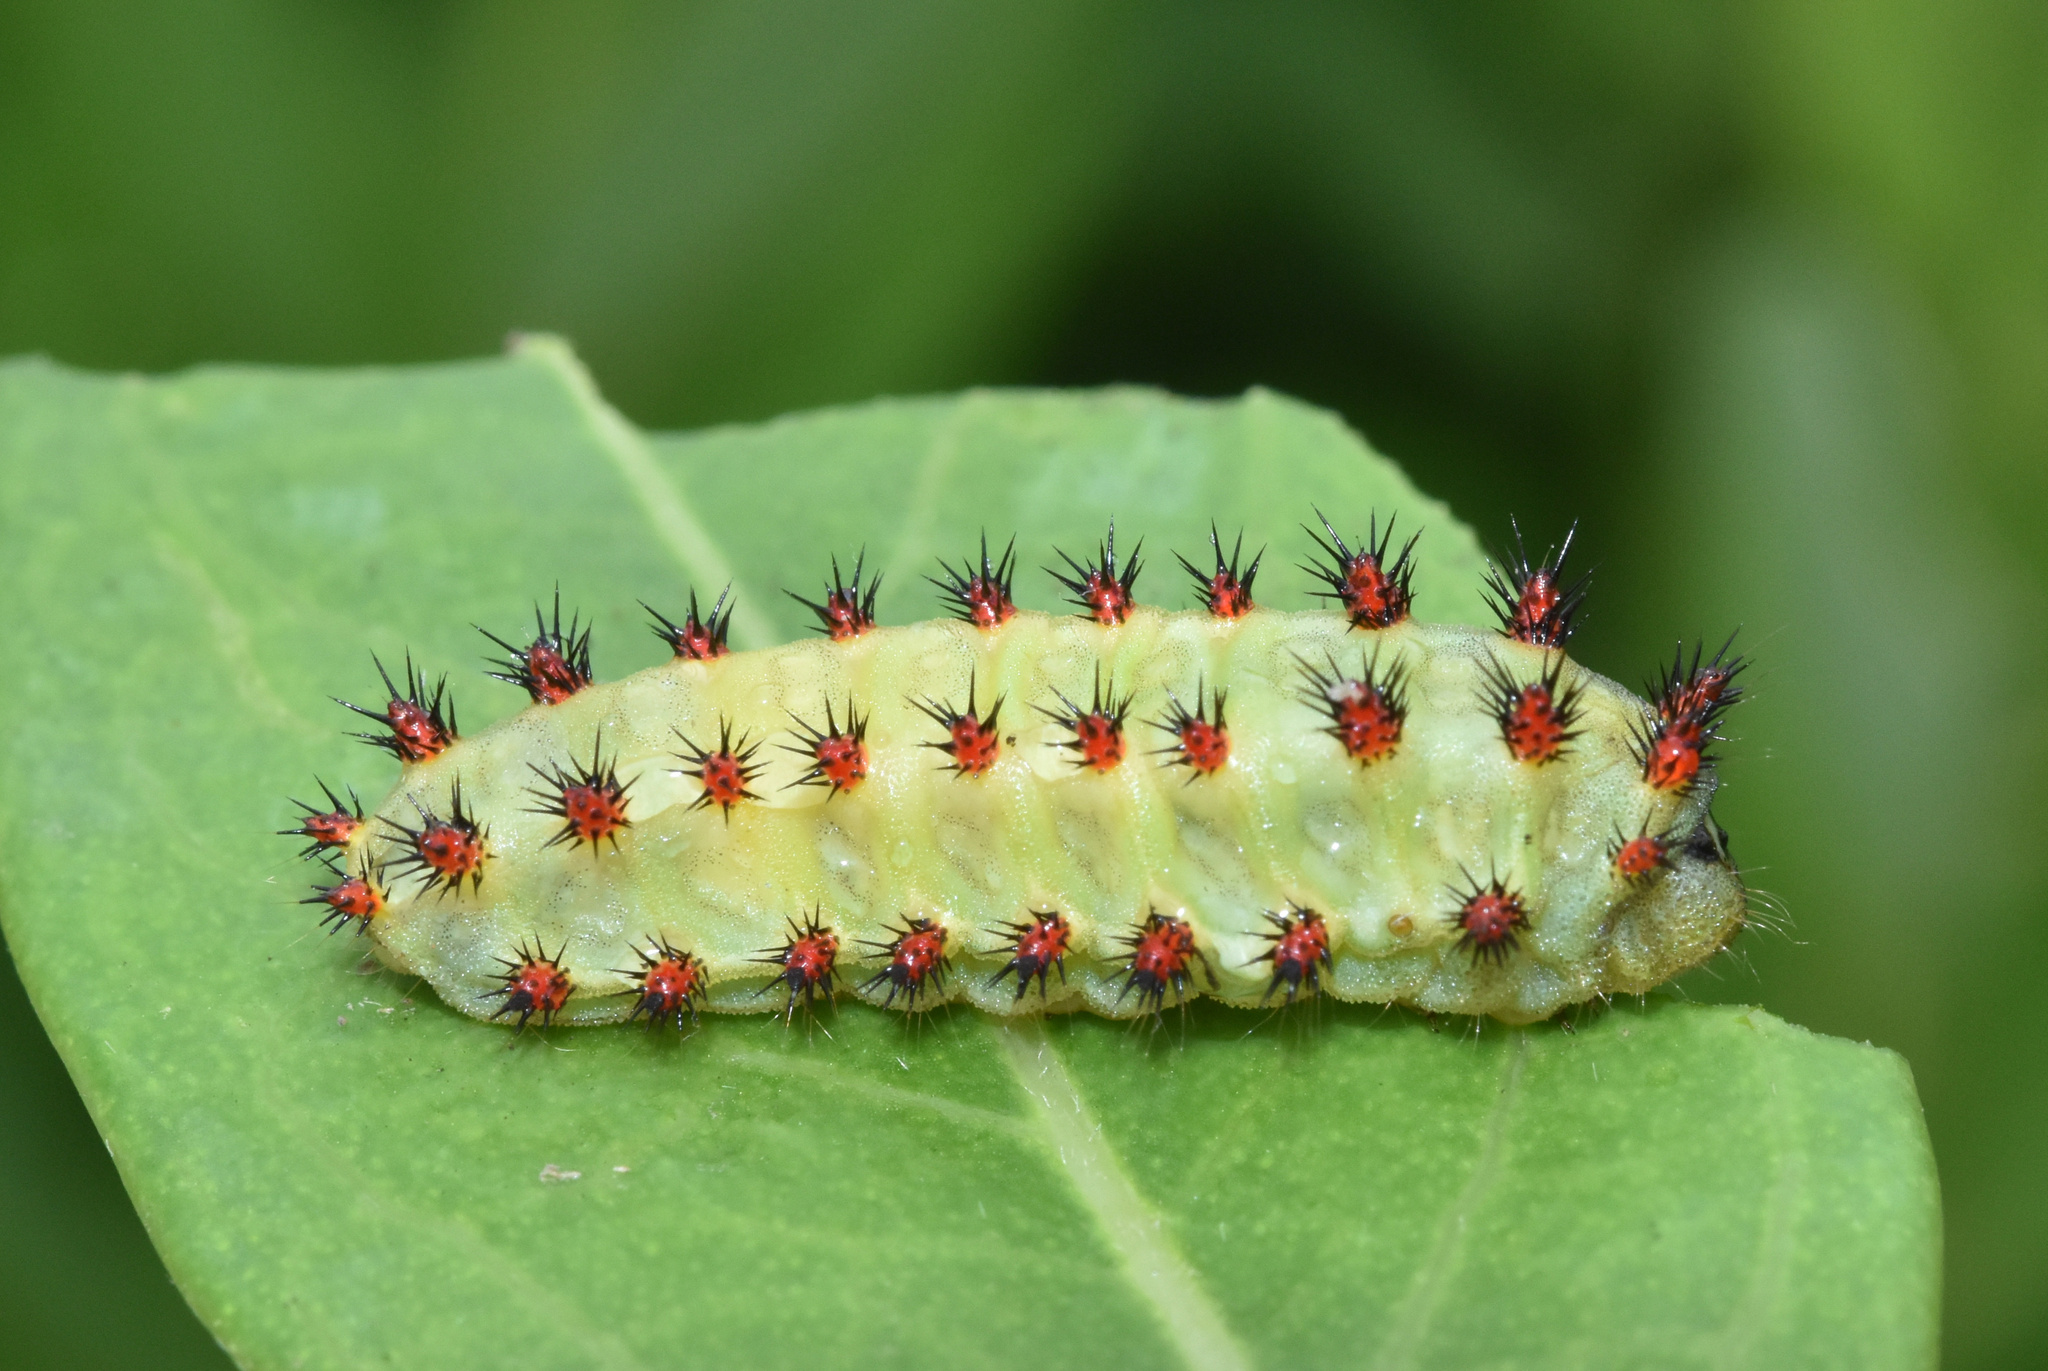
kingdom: Animalia
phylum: Arthropoda
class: Insecta
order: Lepidoptera
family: Limacodidae
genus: Sporetolepis
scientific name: Sporetolepis platti
